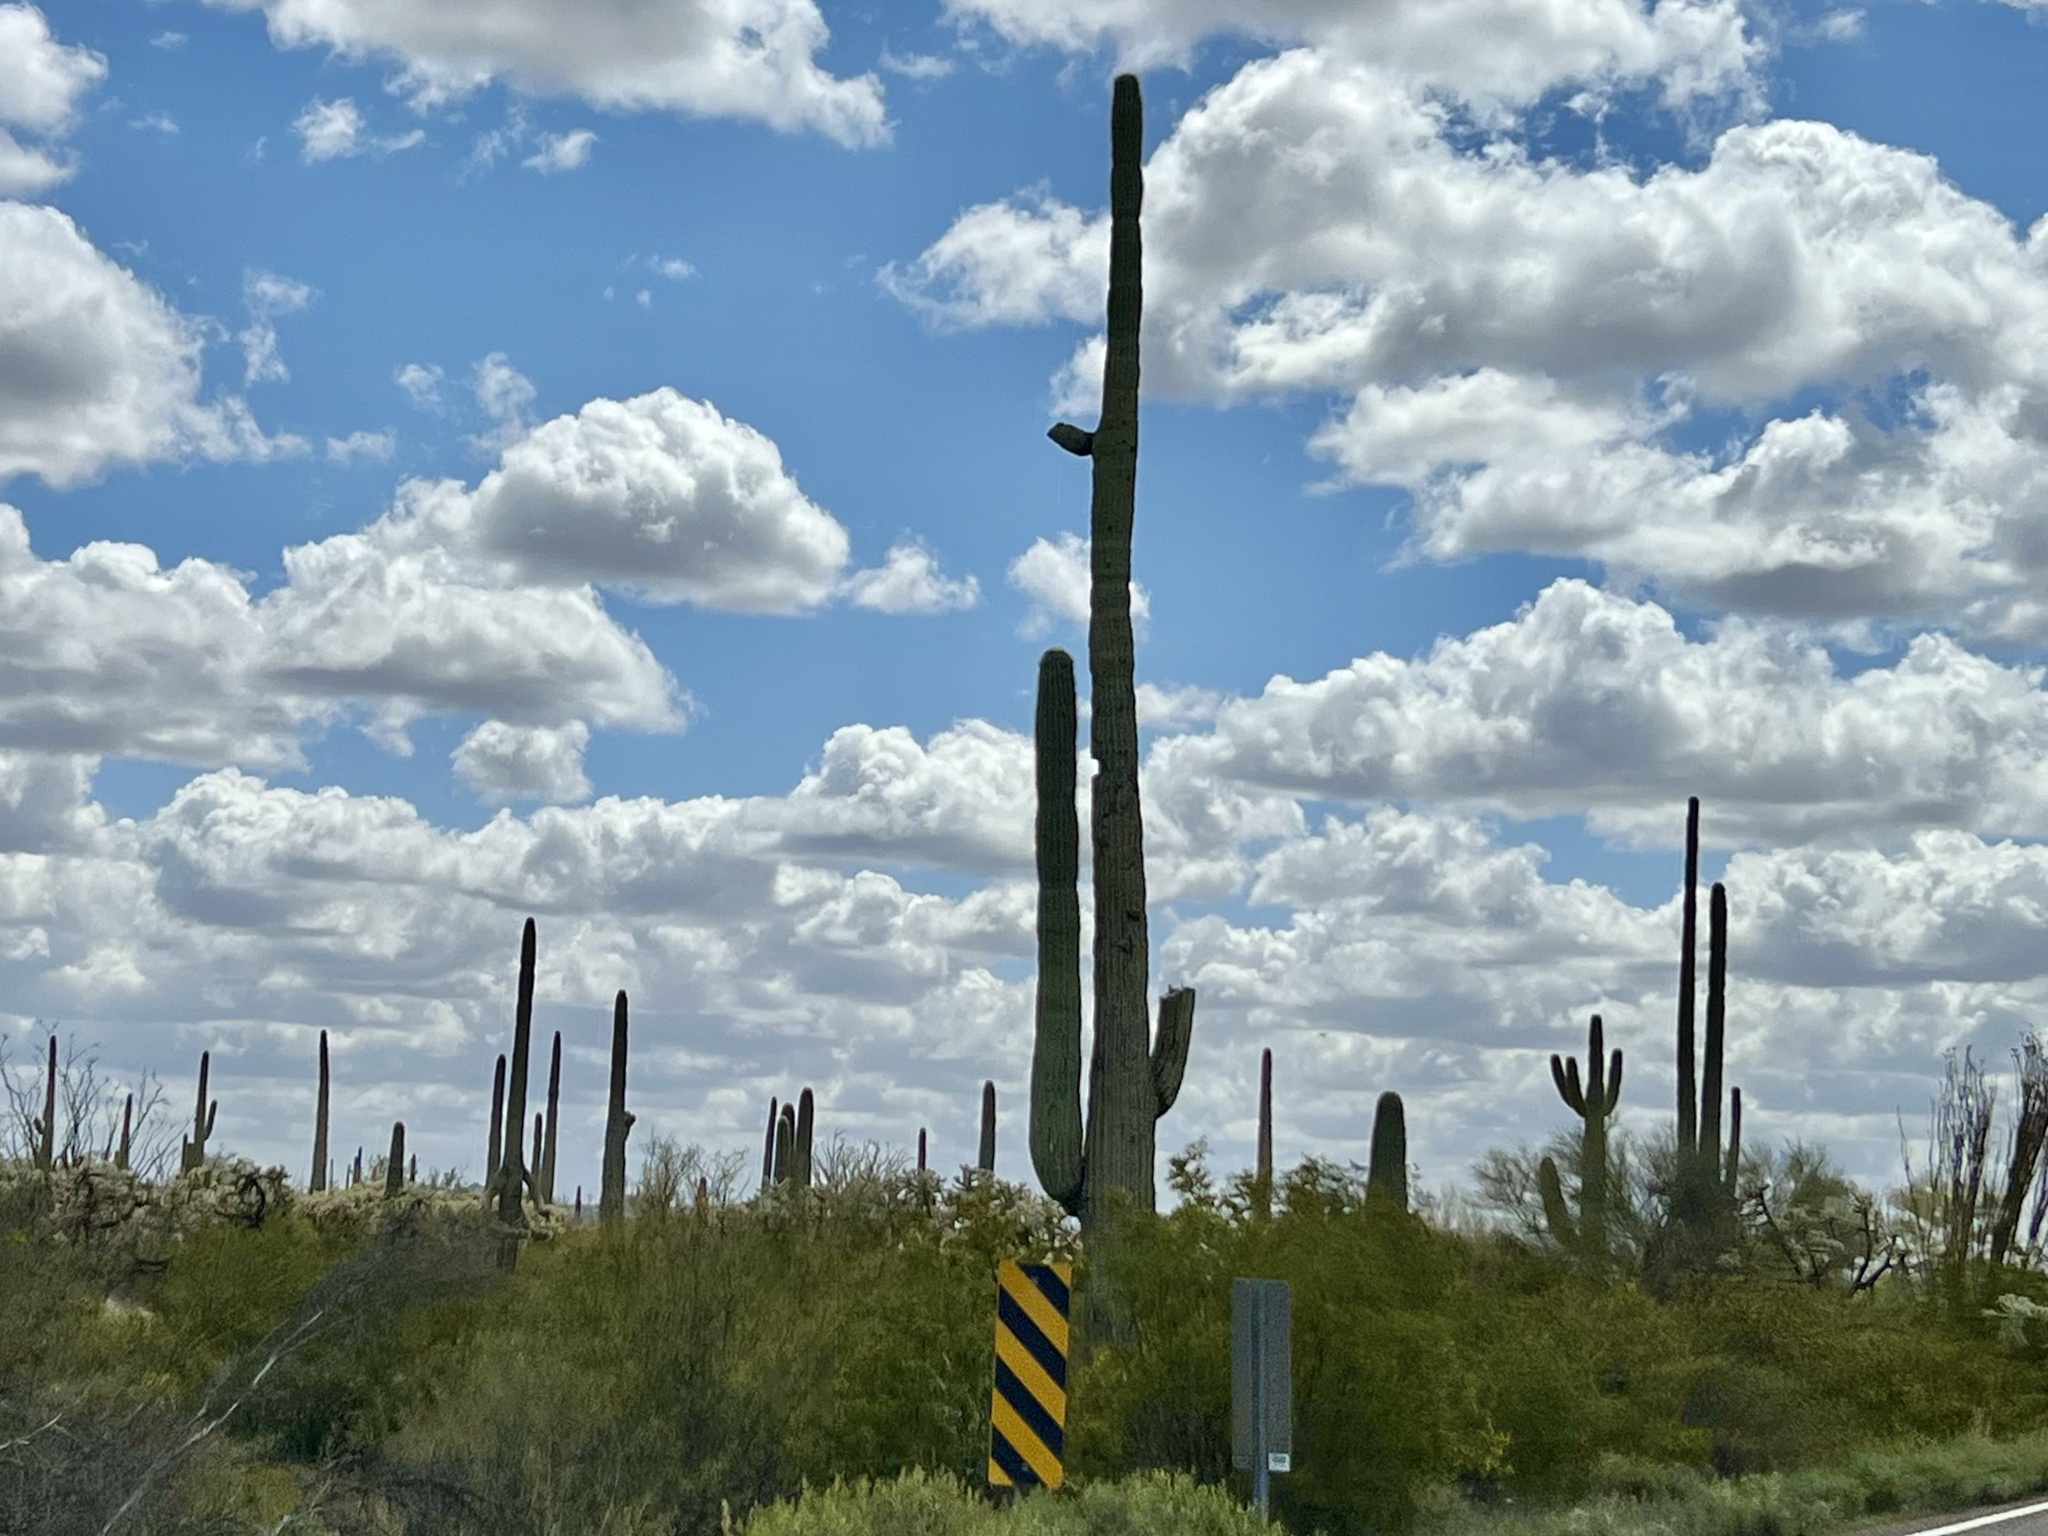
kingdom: Plantae
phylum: Tracheophyta
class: Magnoliopsida
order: Caryophyllales
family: Cactaceae
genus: Carnegiea
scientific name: Carnegiea gigantea
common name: Saguaro
